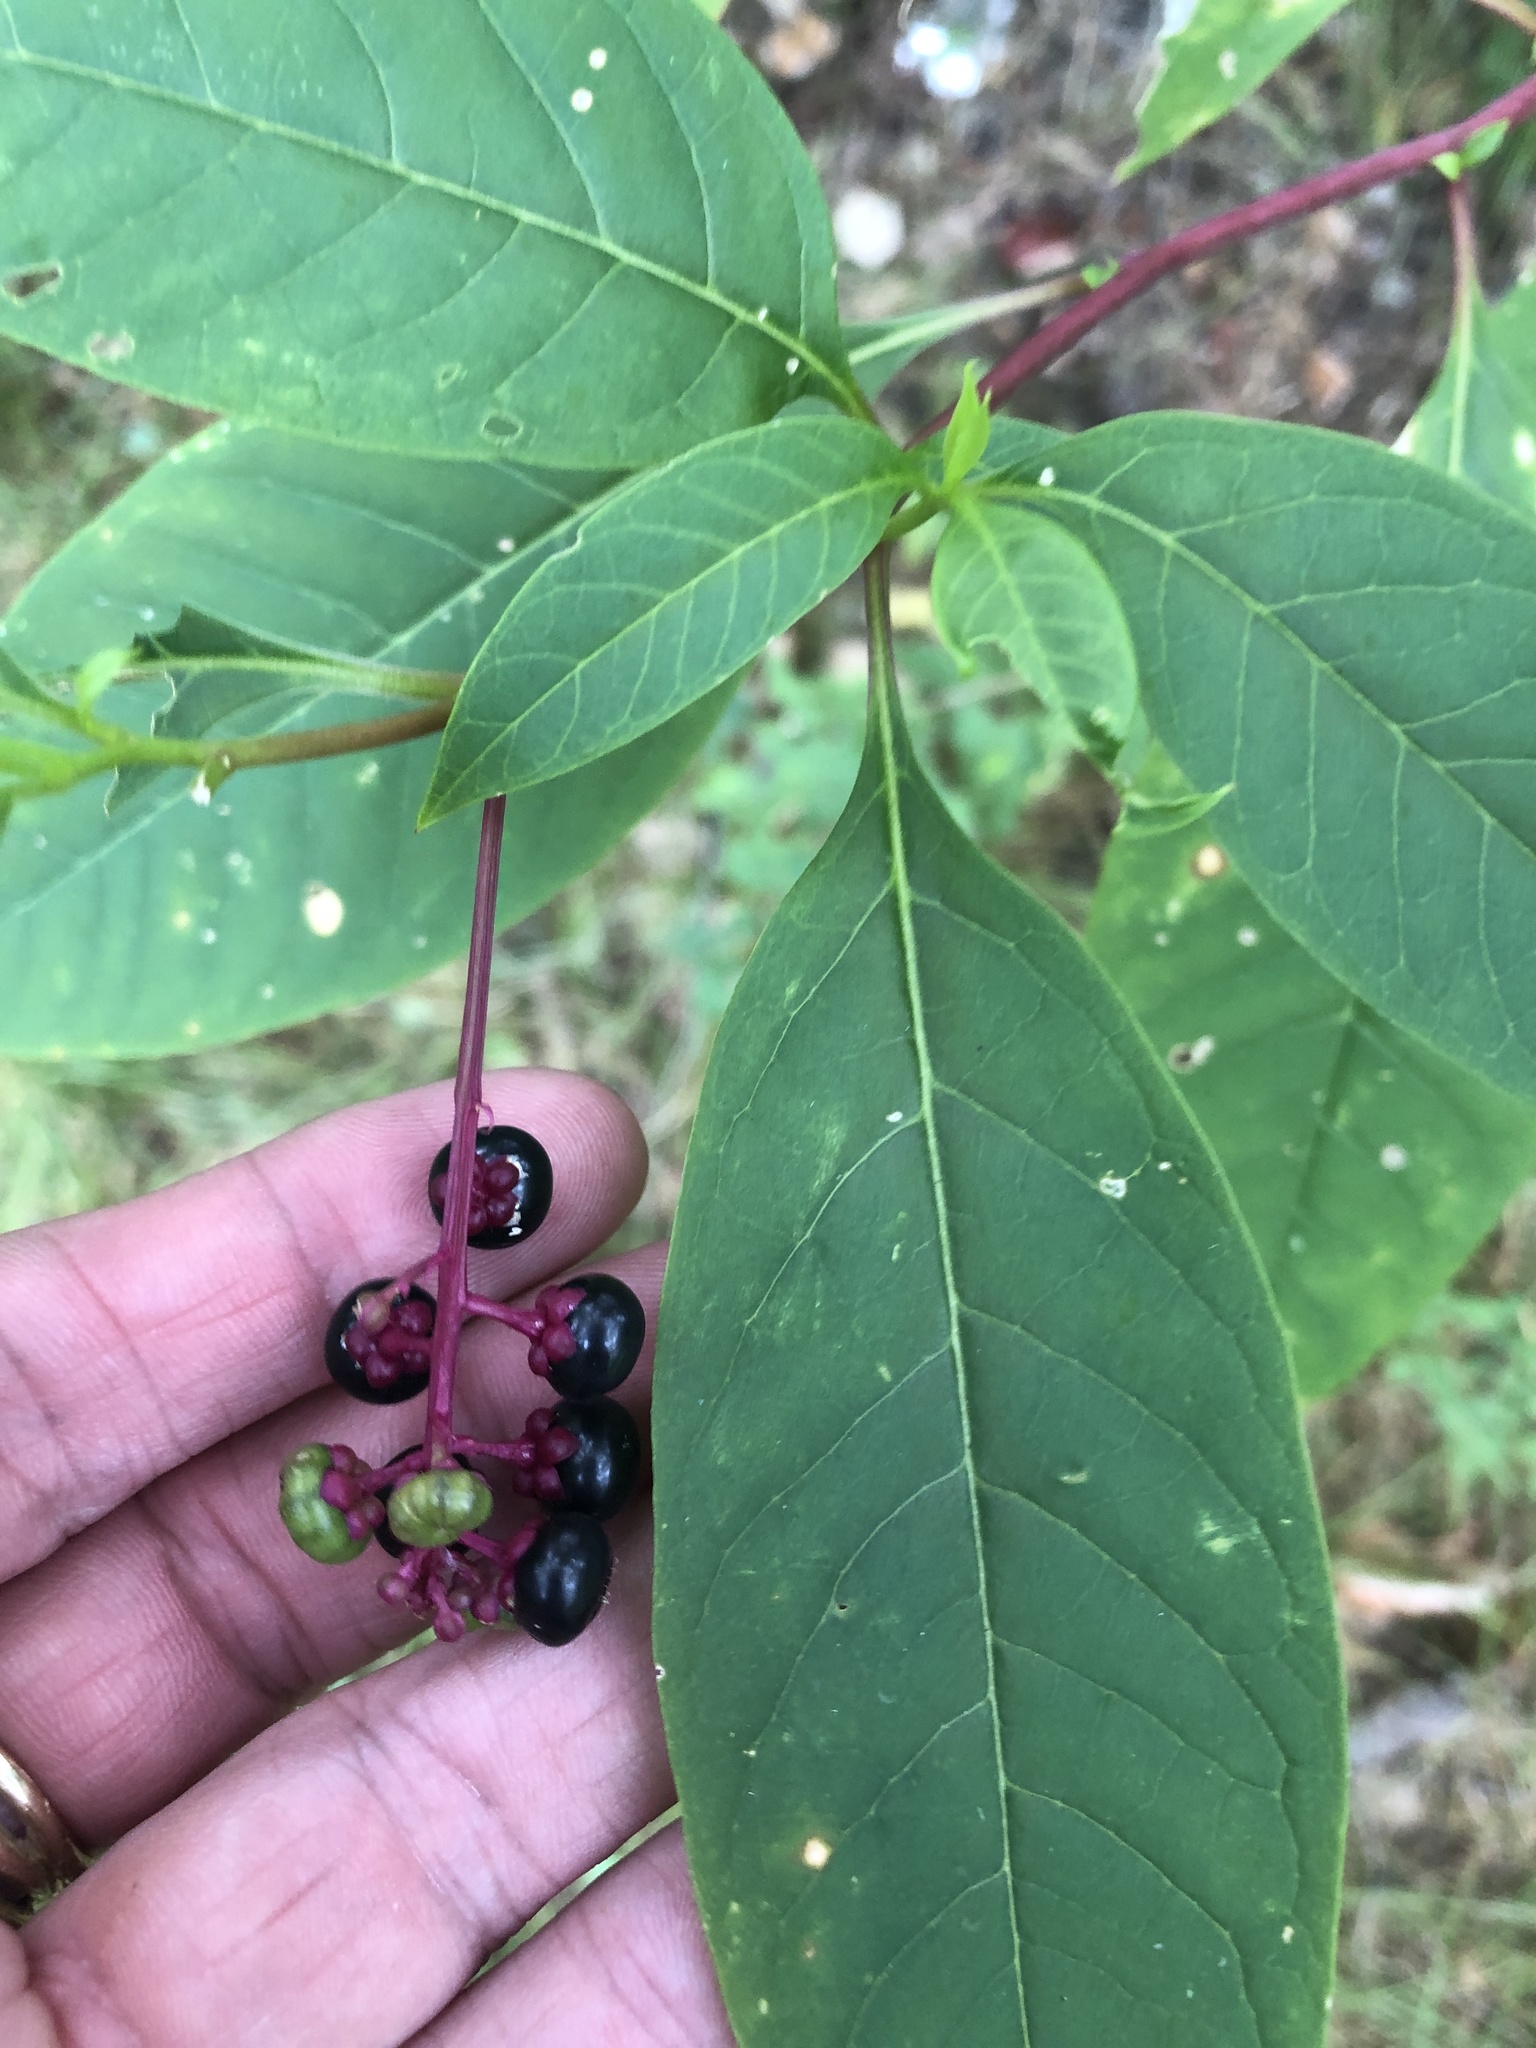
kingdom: Plantae
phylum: Tracheophyta
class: Magnoliopsida
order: Caryophyllales
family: Phytolaccaceae
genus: Phytolacca
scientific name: Phytolacca americana
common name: American pokeweed
